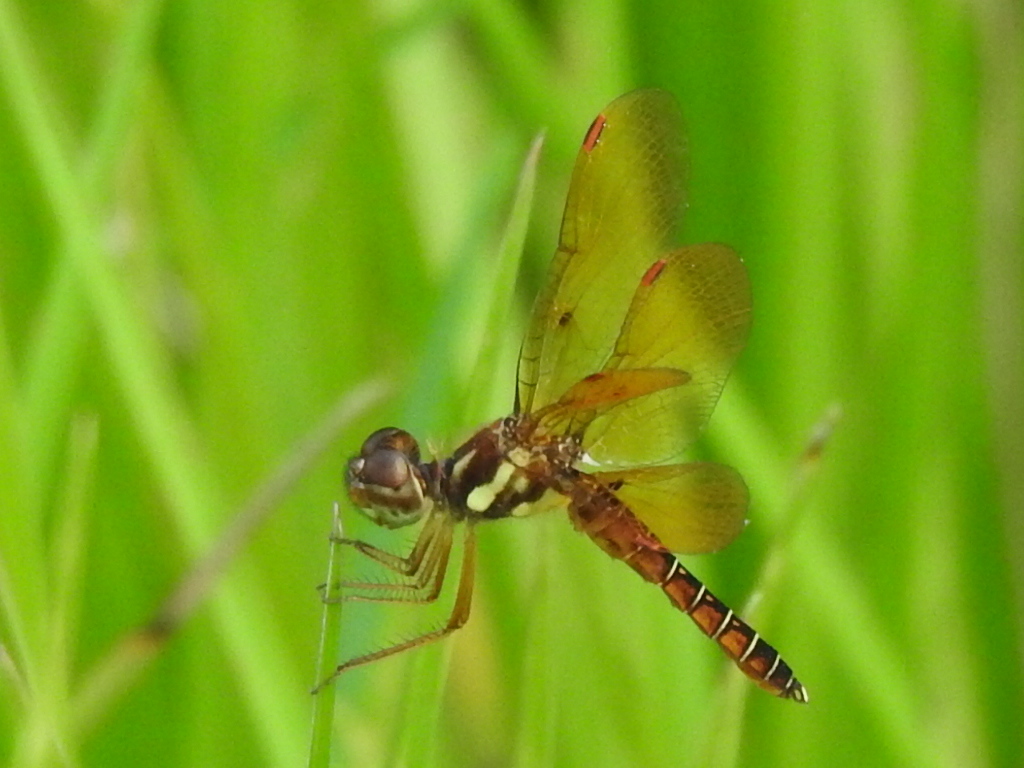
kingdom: Animalia
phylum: Arthropoda
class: Insecta
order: Odonata
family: Libellulidae
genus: Perithemis
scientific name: Perithemis tenera
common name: Eastern amberwing
